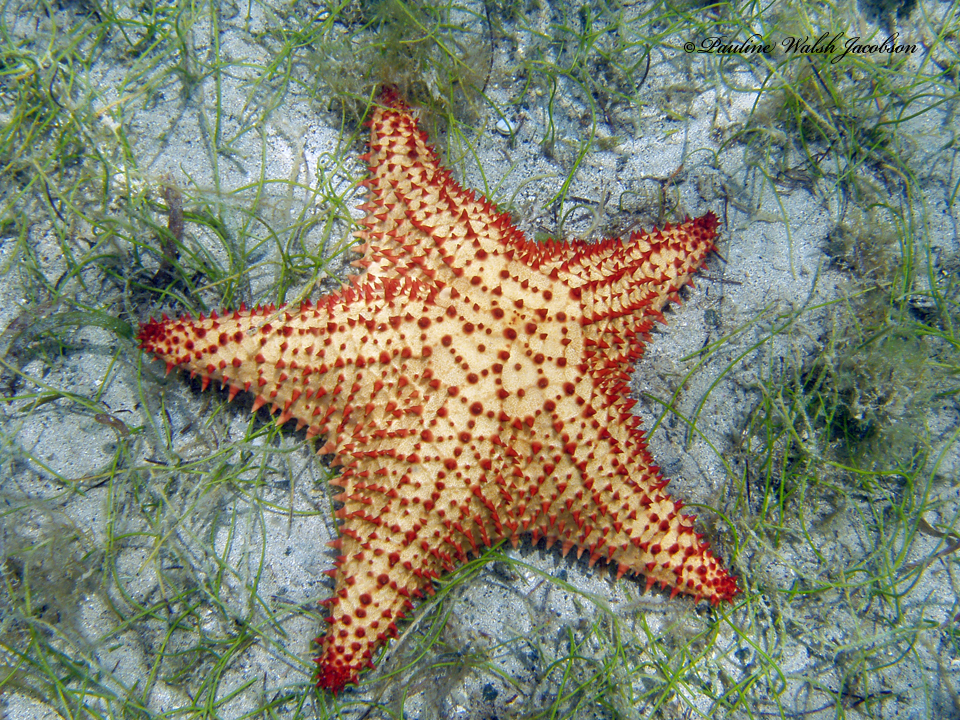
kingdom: Animalia
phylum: Echinodermata
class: Asteroidea
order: Valvatida
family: Oreasteridae
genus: Oreaster
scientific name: Oreaster reticulatus
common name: Cushion sea star
